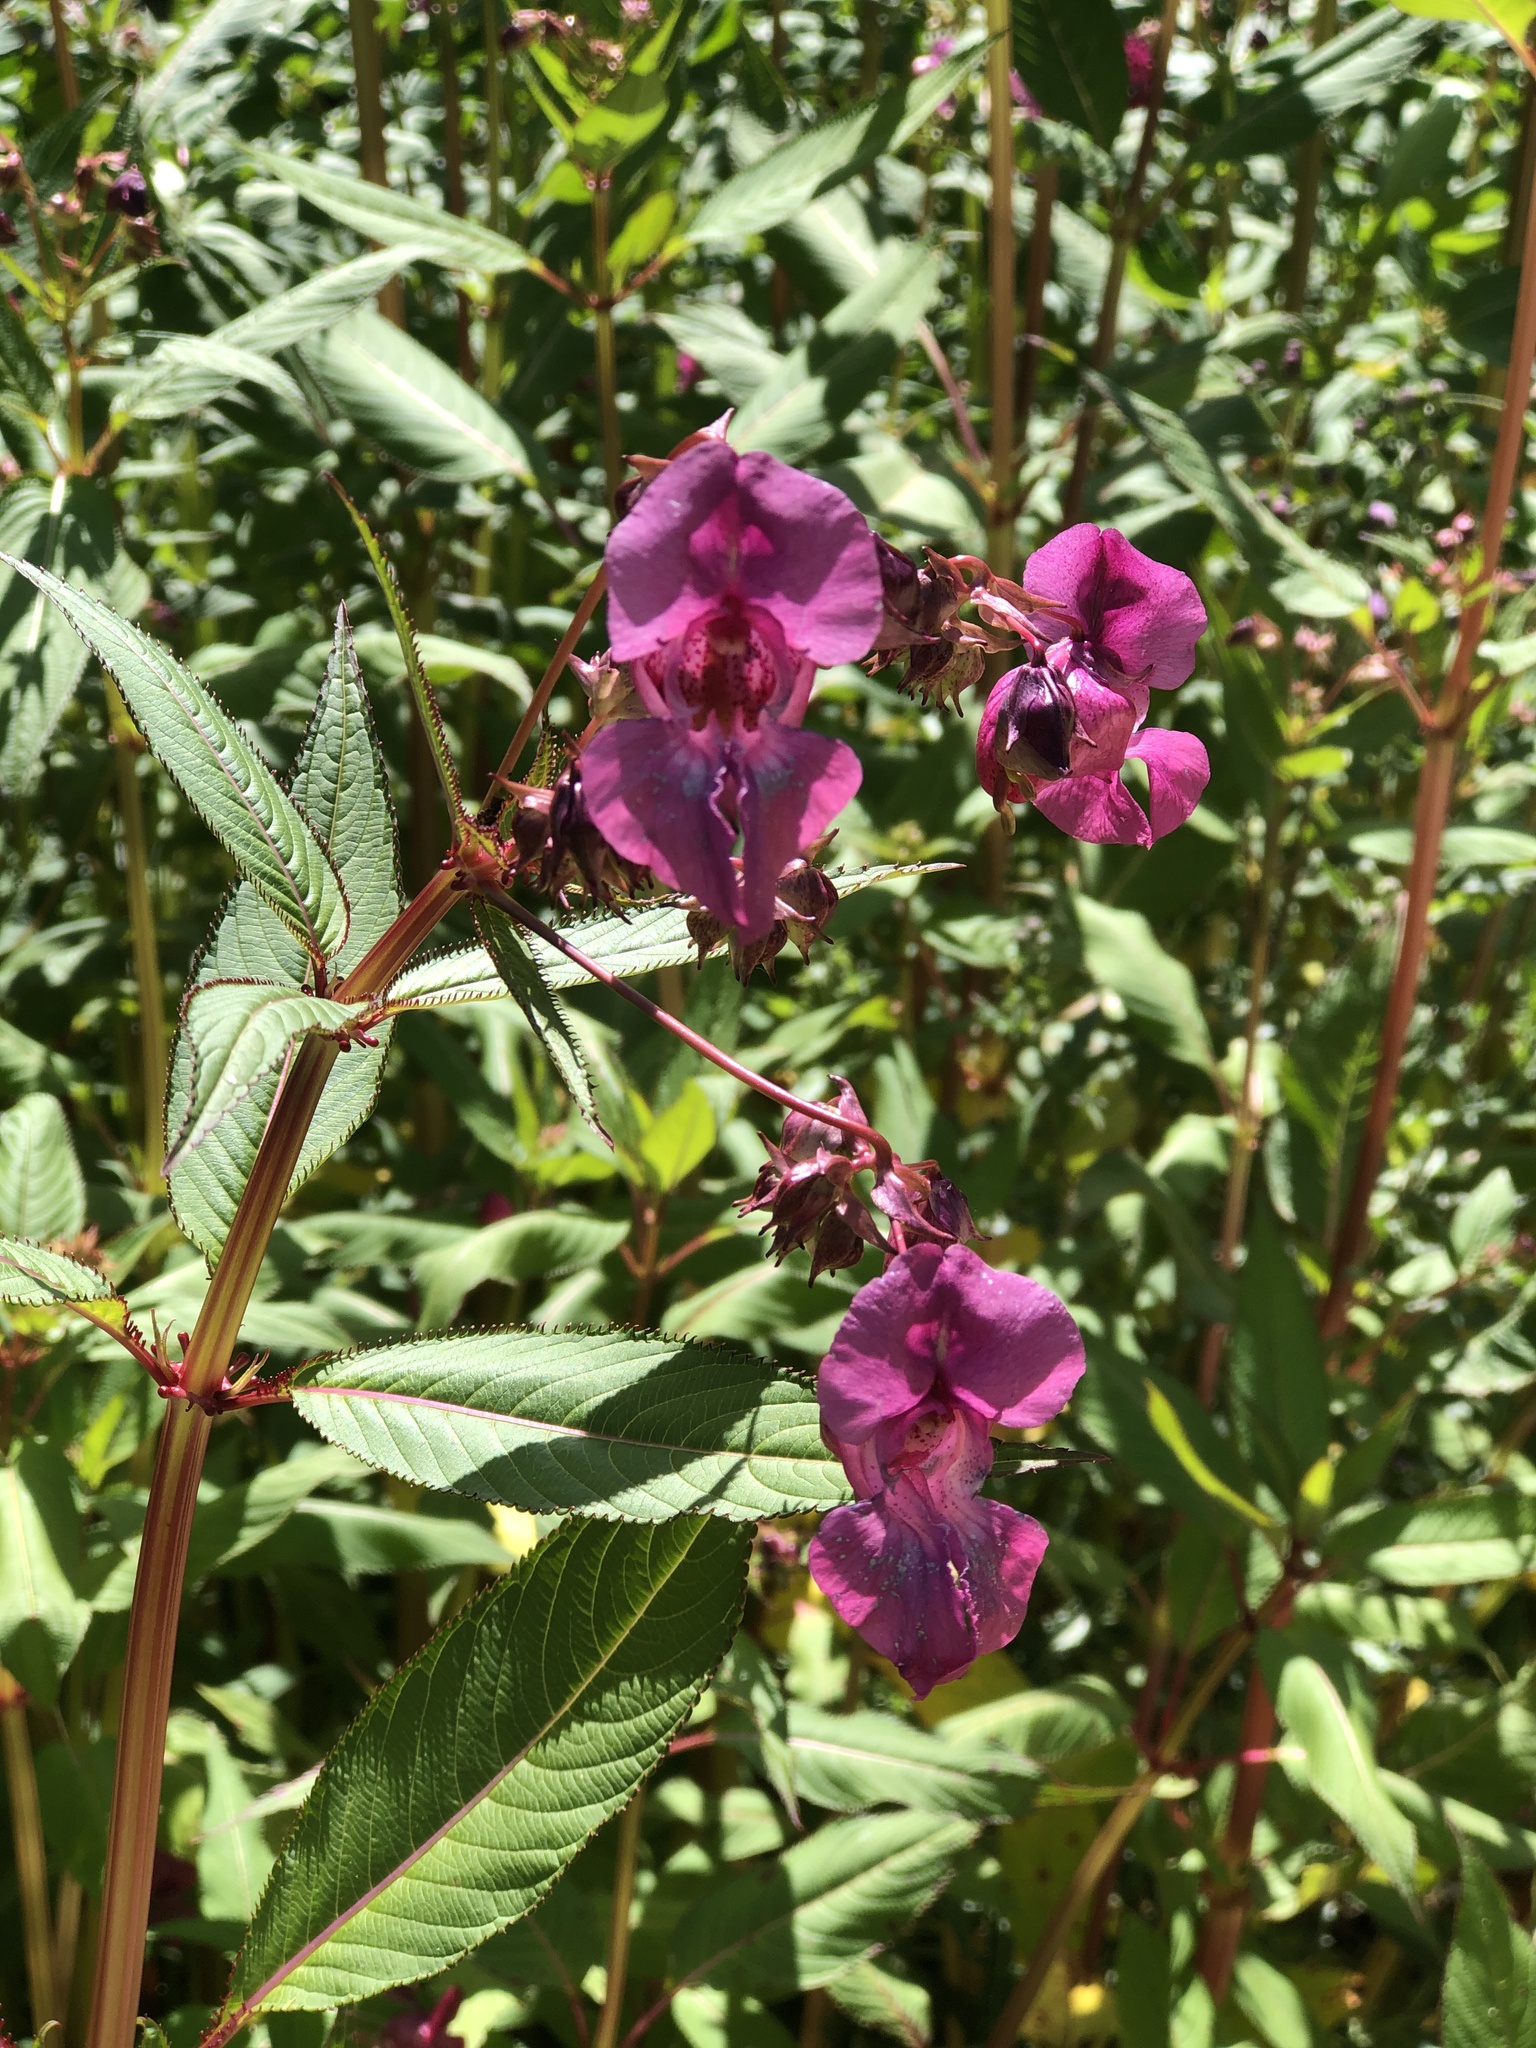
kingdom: Plantae
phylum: Tracheophyta
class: Magnoliopsida
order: Ericales
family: Balsaminaceae
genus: Impatiens
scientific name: Impatiens glandulifera
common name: Himalayan balsam
